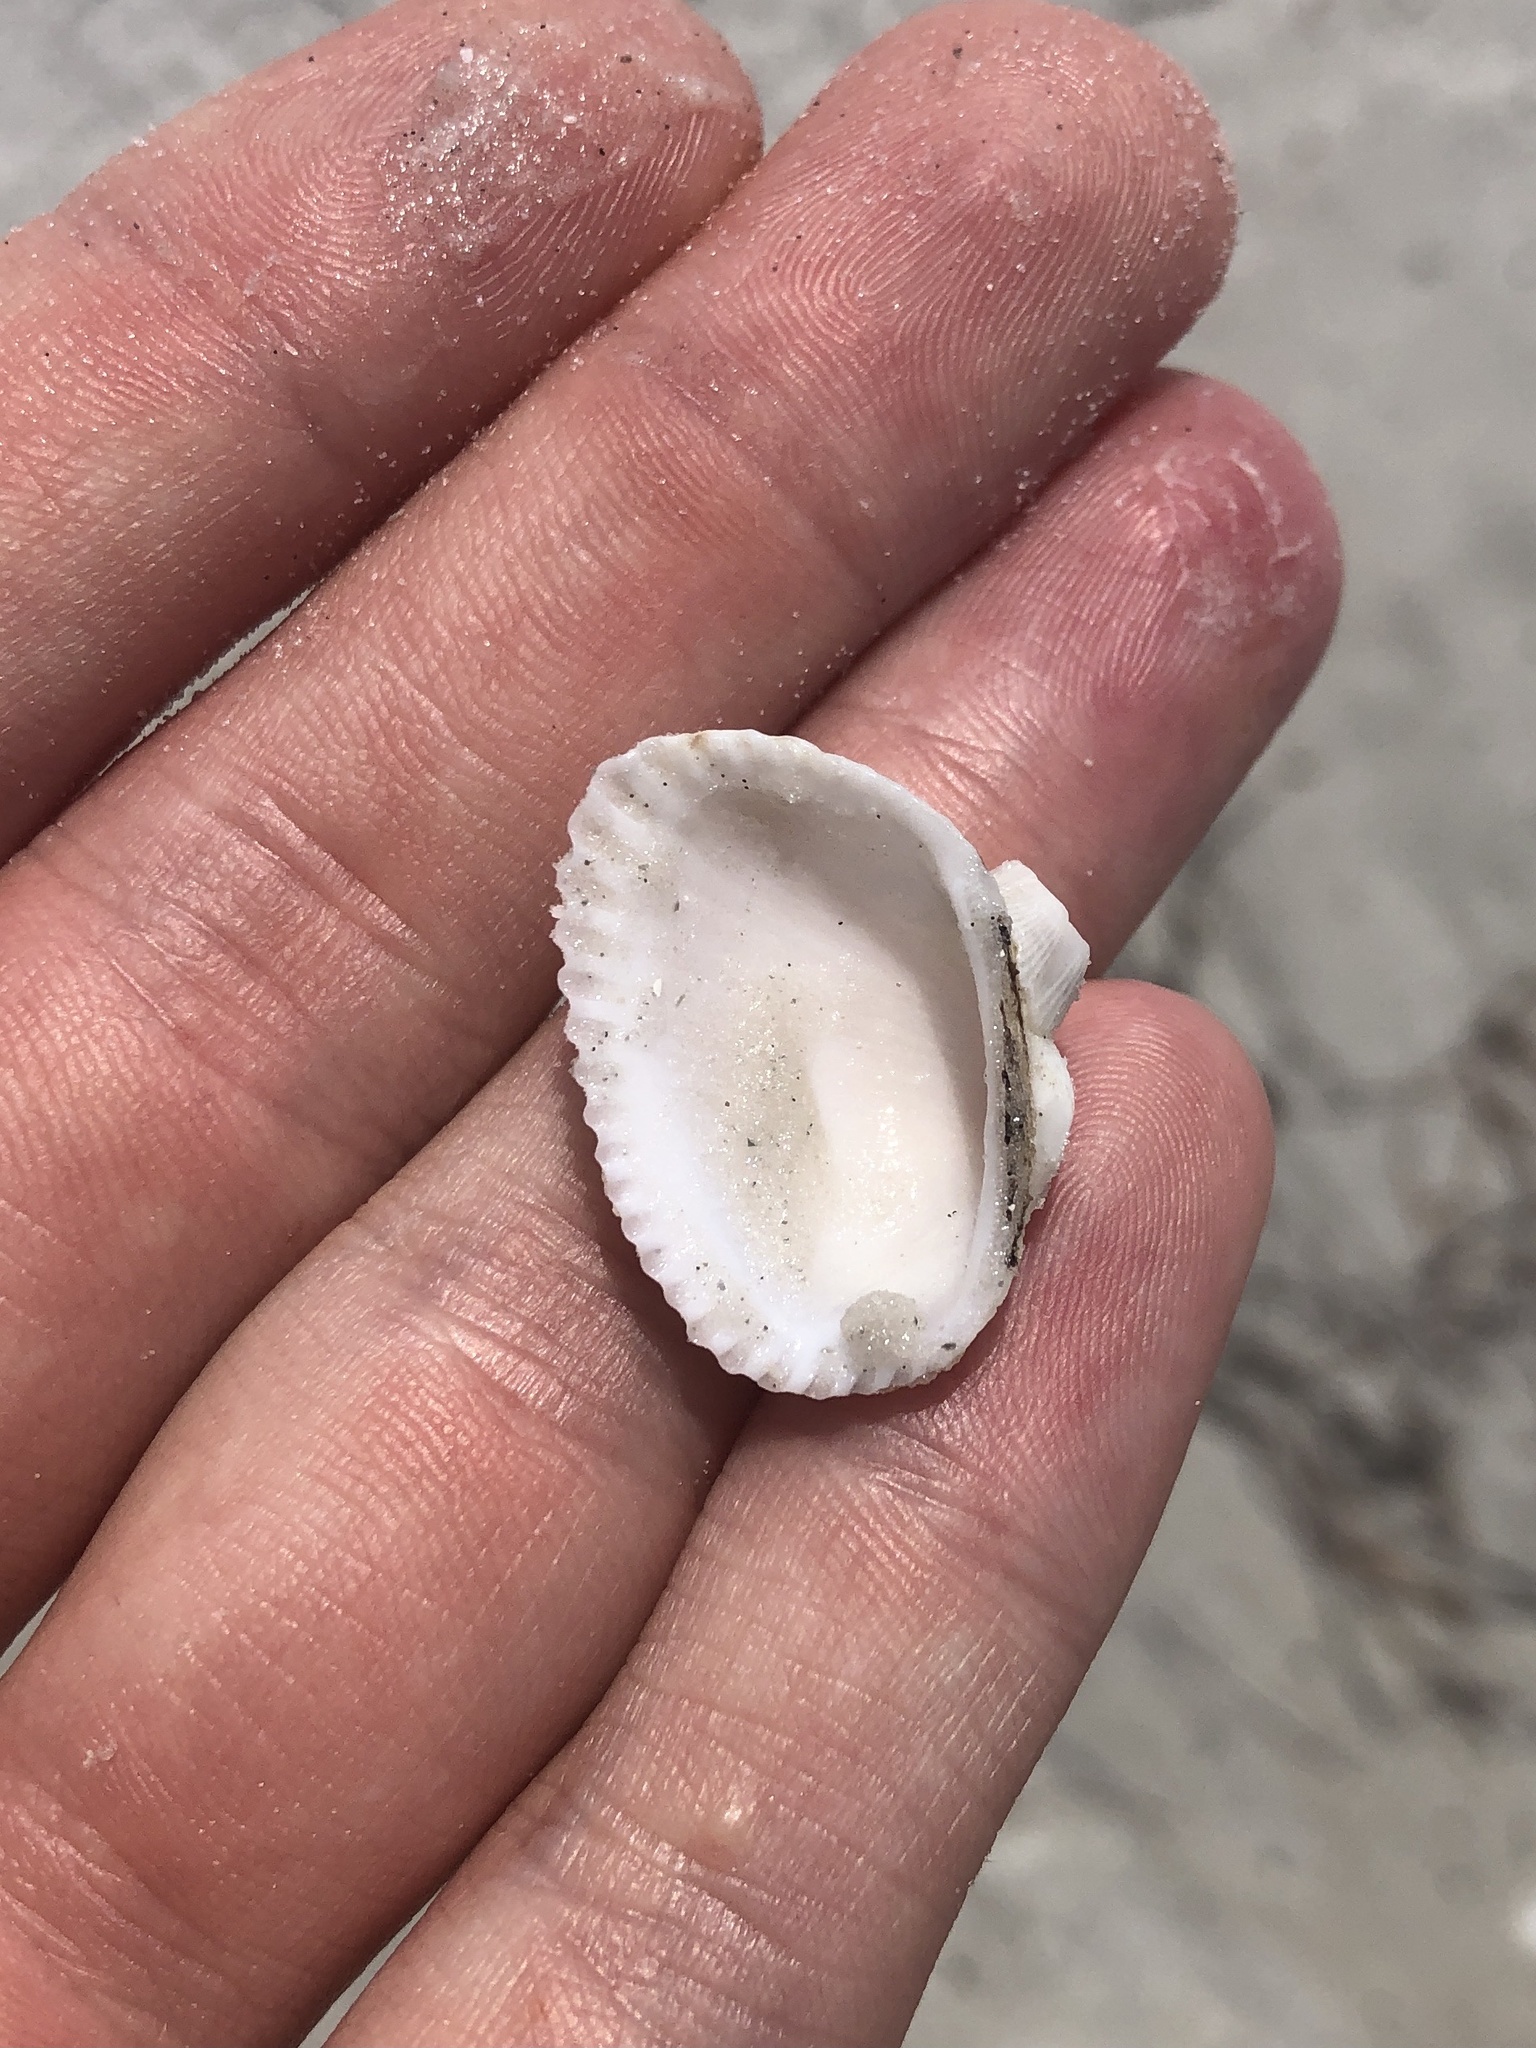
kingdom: Animalia
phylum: Mollusca
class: Bivalvia
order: Arcida
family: Arcidae
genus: Anadara
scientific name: Anadara transversa
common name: Transverse ark
